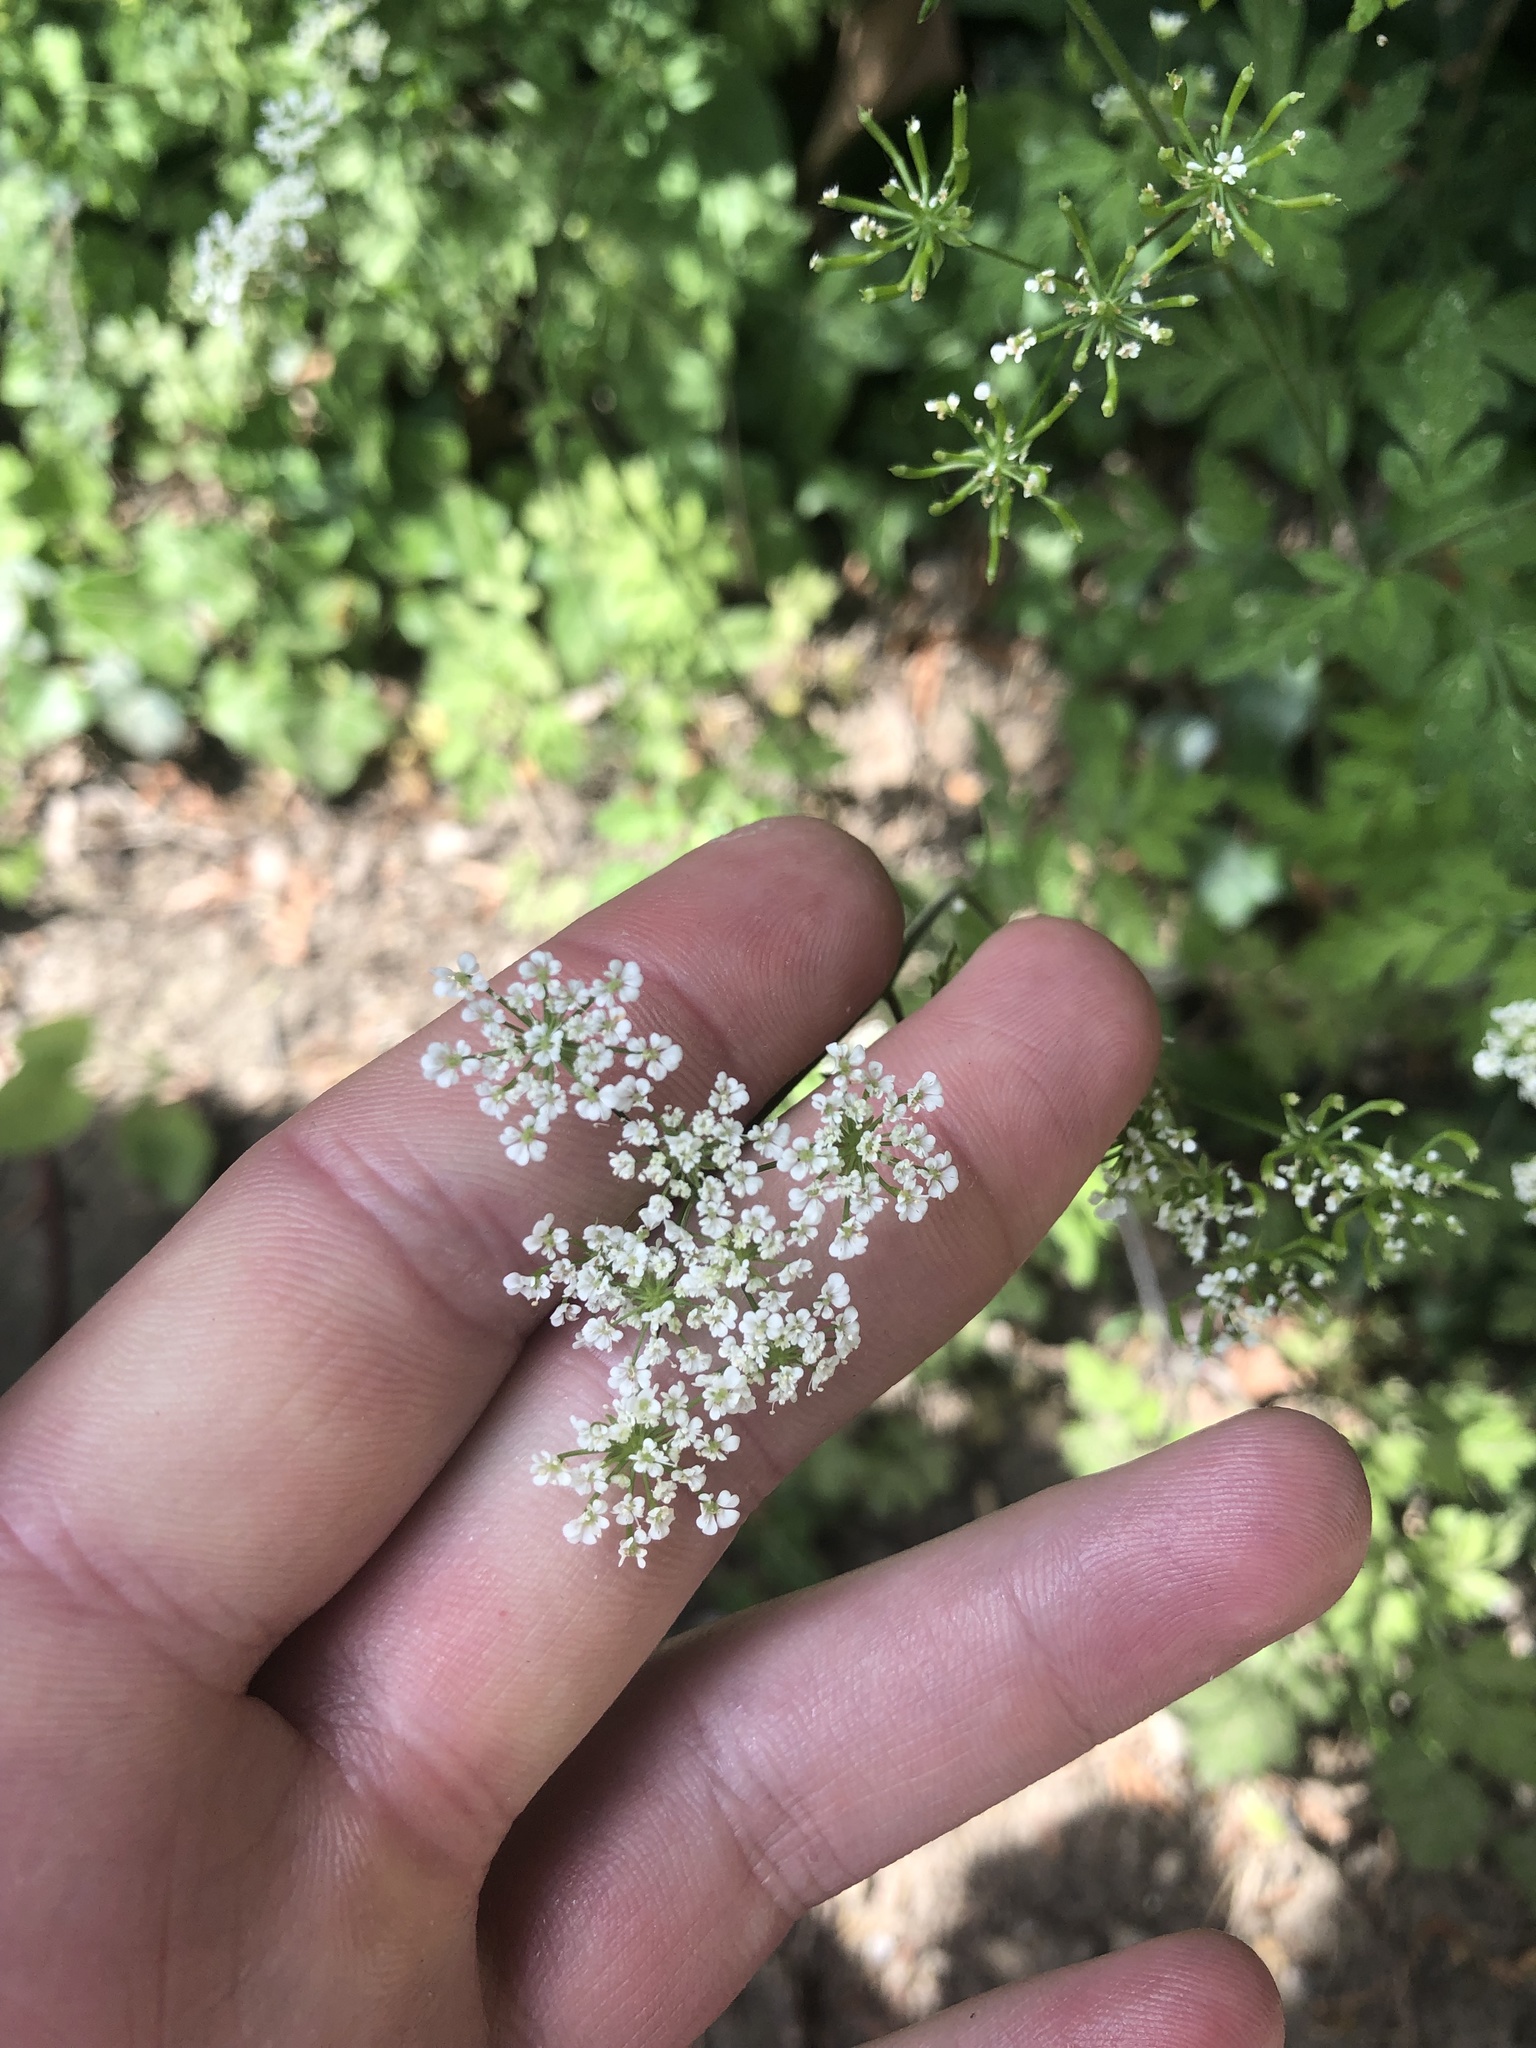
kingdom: Plantae
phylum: Tracheophyta
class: Magnoliopsida
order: Apiales
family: Apiaceae
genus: Chaerophyllum
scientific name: Chaerophyllum temulum
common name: Rough chervil
